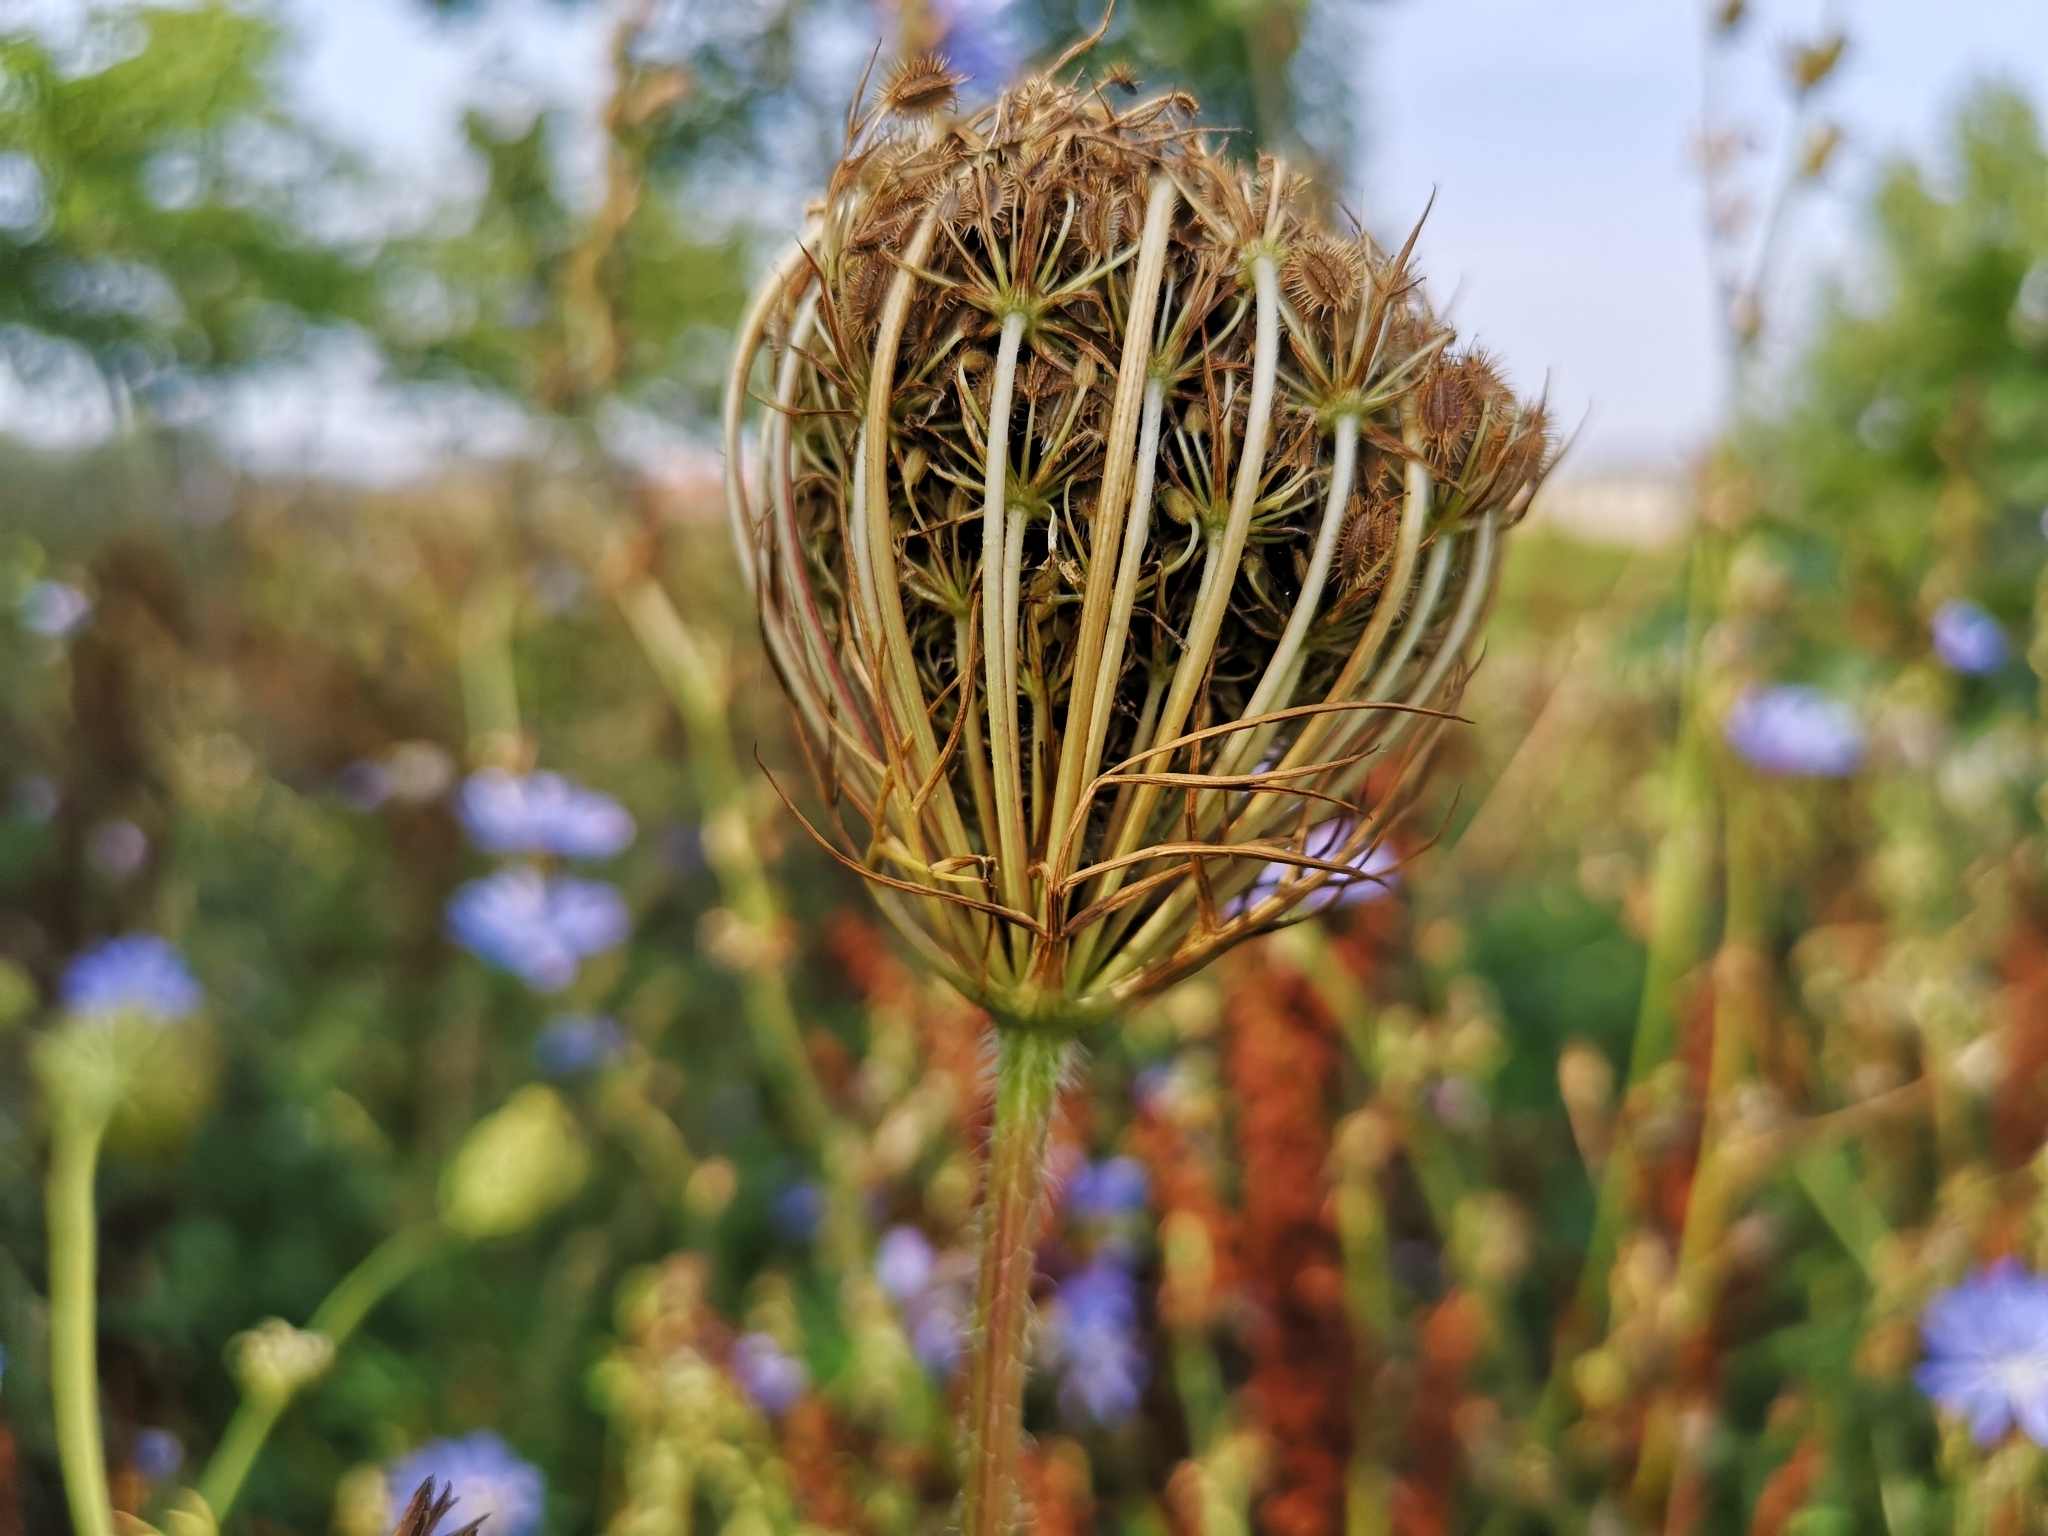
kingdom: Plantae
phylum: Tracheophyta
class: Magnoliopsida
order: Apiales
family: Apiaceae
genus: Daucus
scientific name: Daucus carota
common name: Wild carrot
